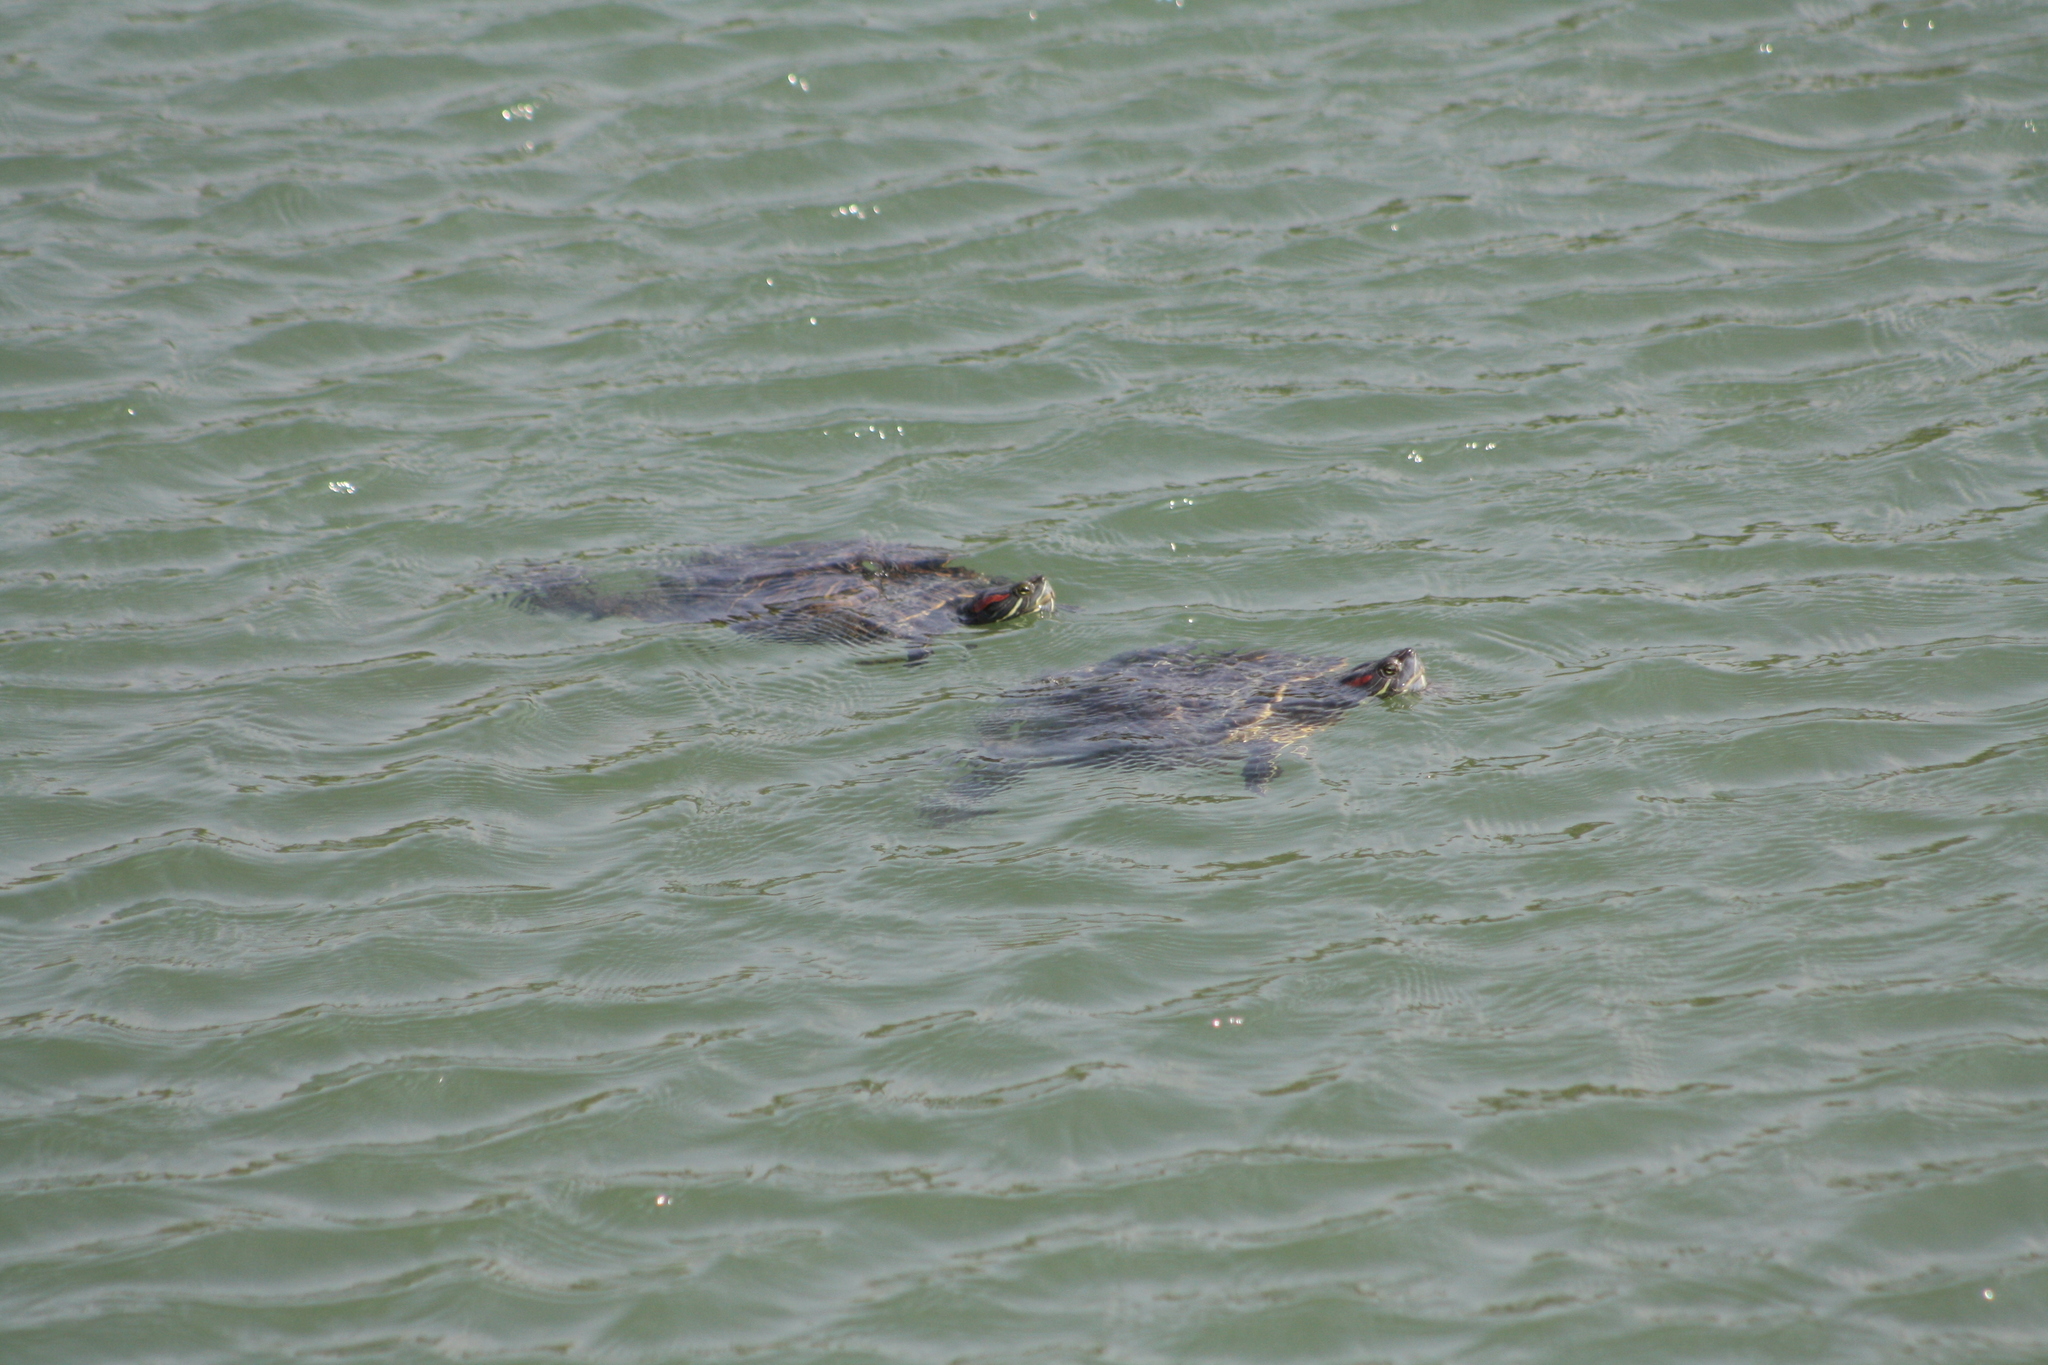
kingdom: Animalia
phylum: Chordata
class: Testudines
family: Emydidae
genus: Trachemys
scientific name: Trachemys scripta
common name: Slider
